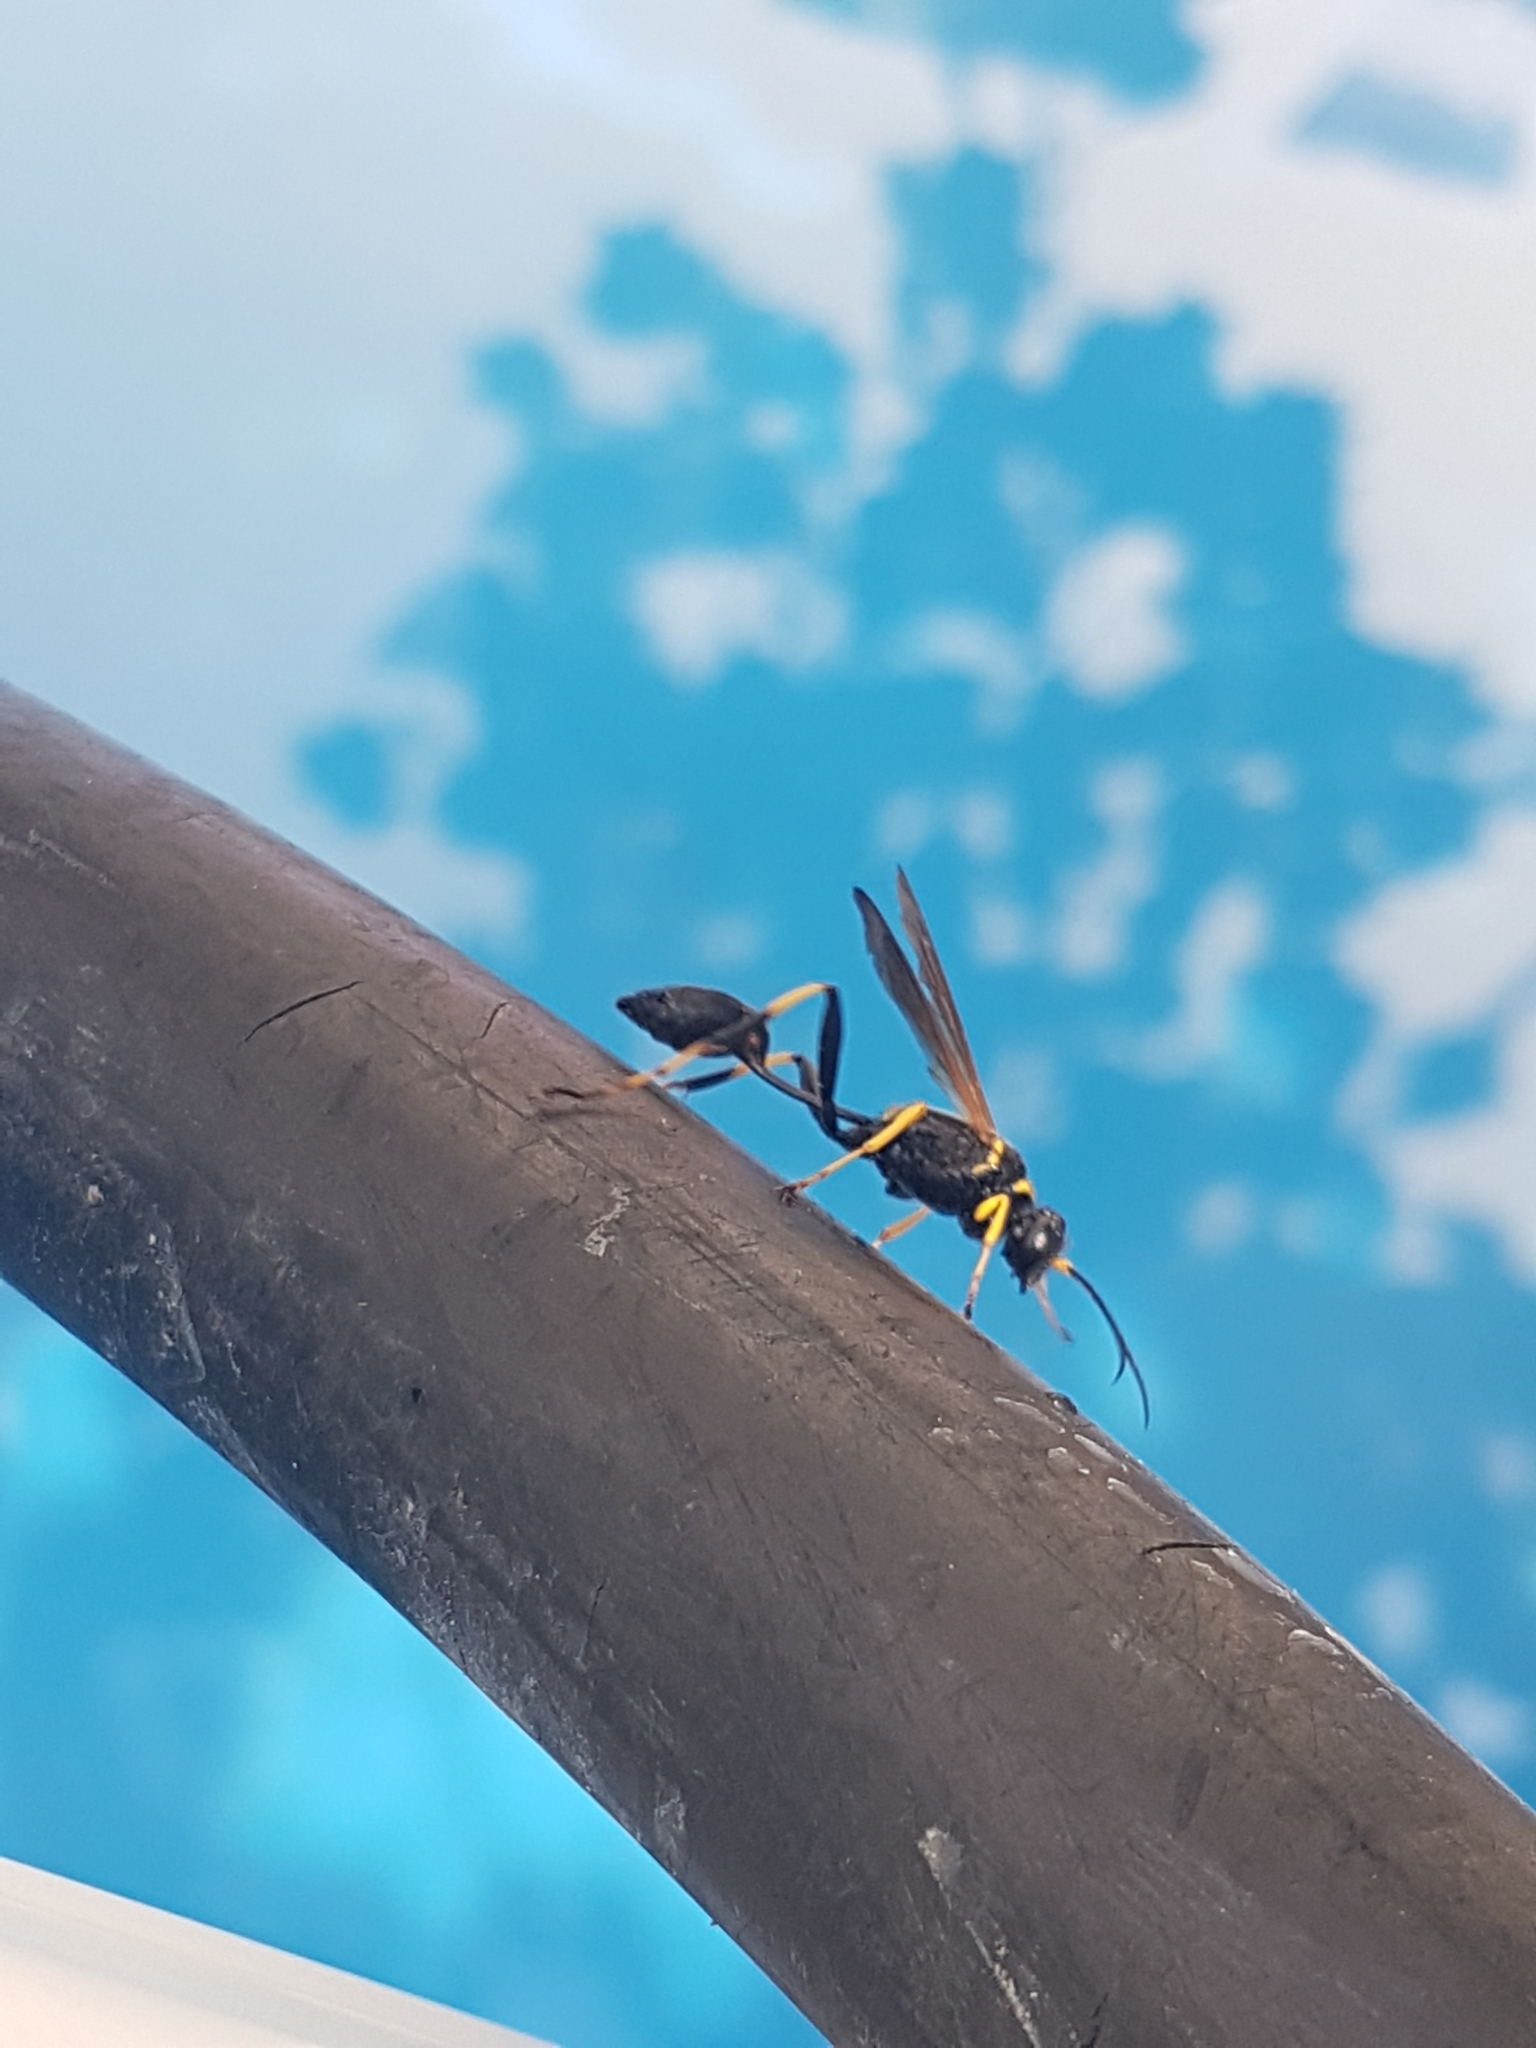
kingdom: Animalia
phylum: Arthropoda
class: Insecta
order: Hymenoptera
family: Sphecidae
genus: Sceliphron
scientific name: Sceliphron caementarium
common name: Mud dauber
